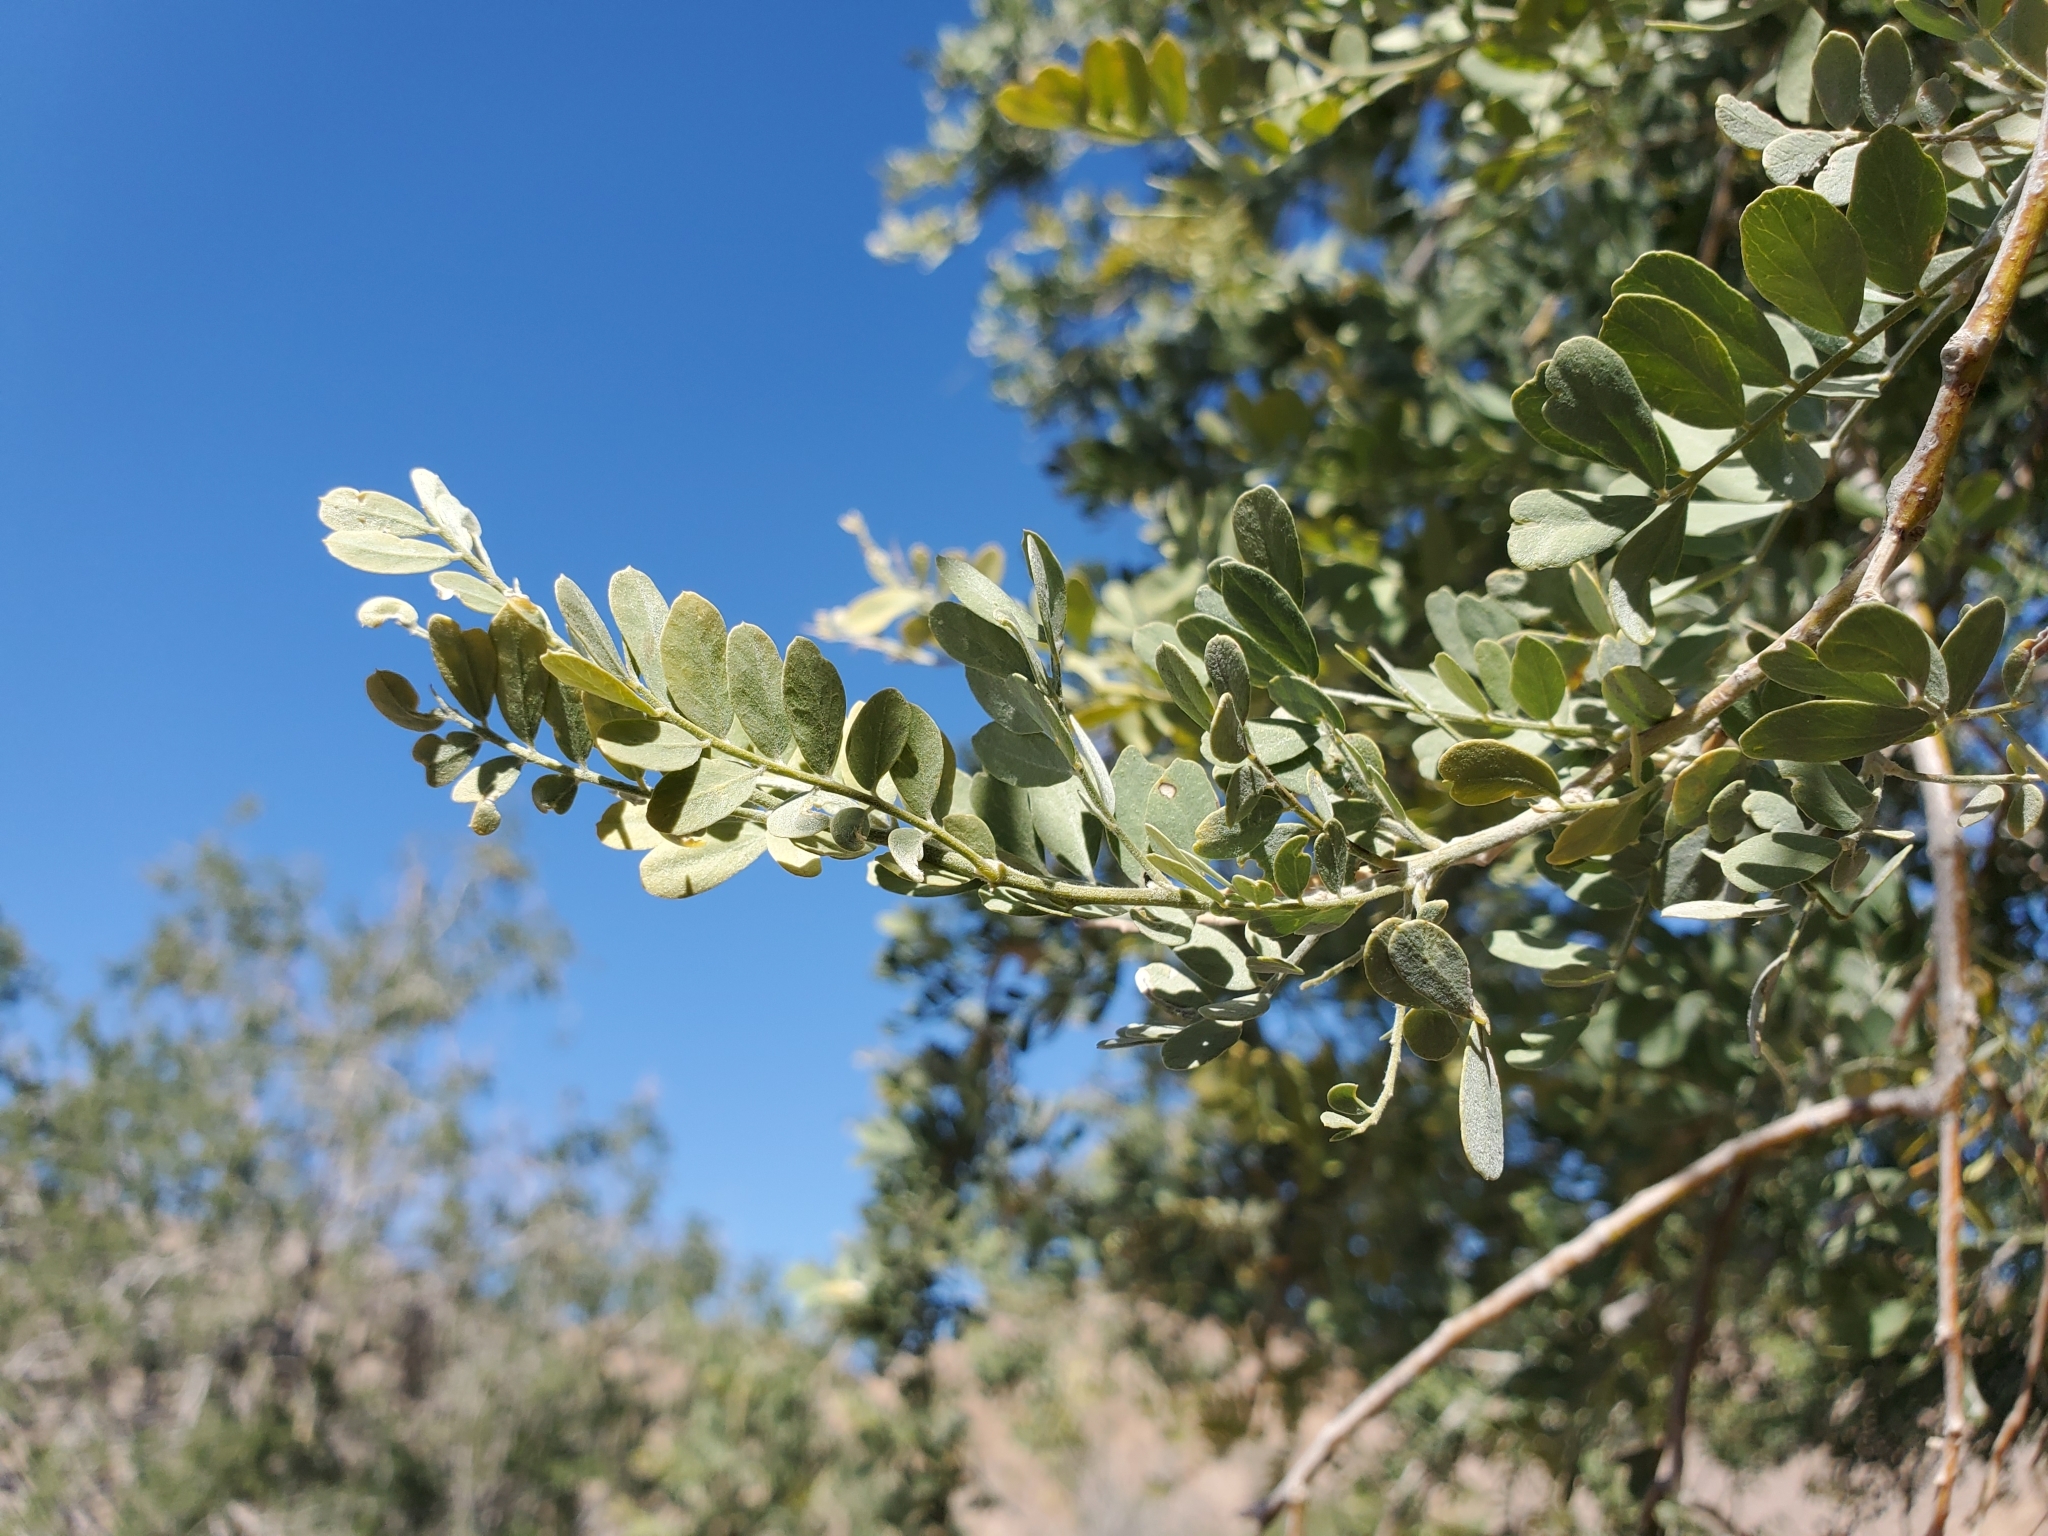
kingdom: Plantae
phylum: Tracheophyta
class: Magnoliopsida
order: Fabales
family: Fabaceae
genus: Olneya
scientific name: Olneya tesota
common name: Desert ironwood
